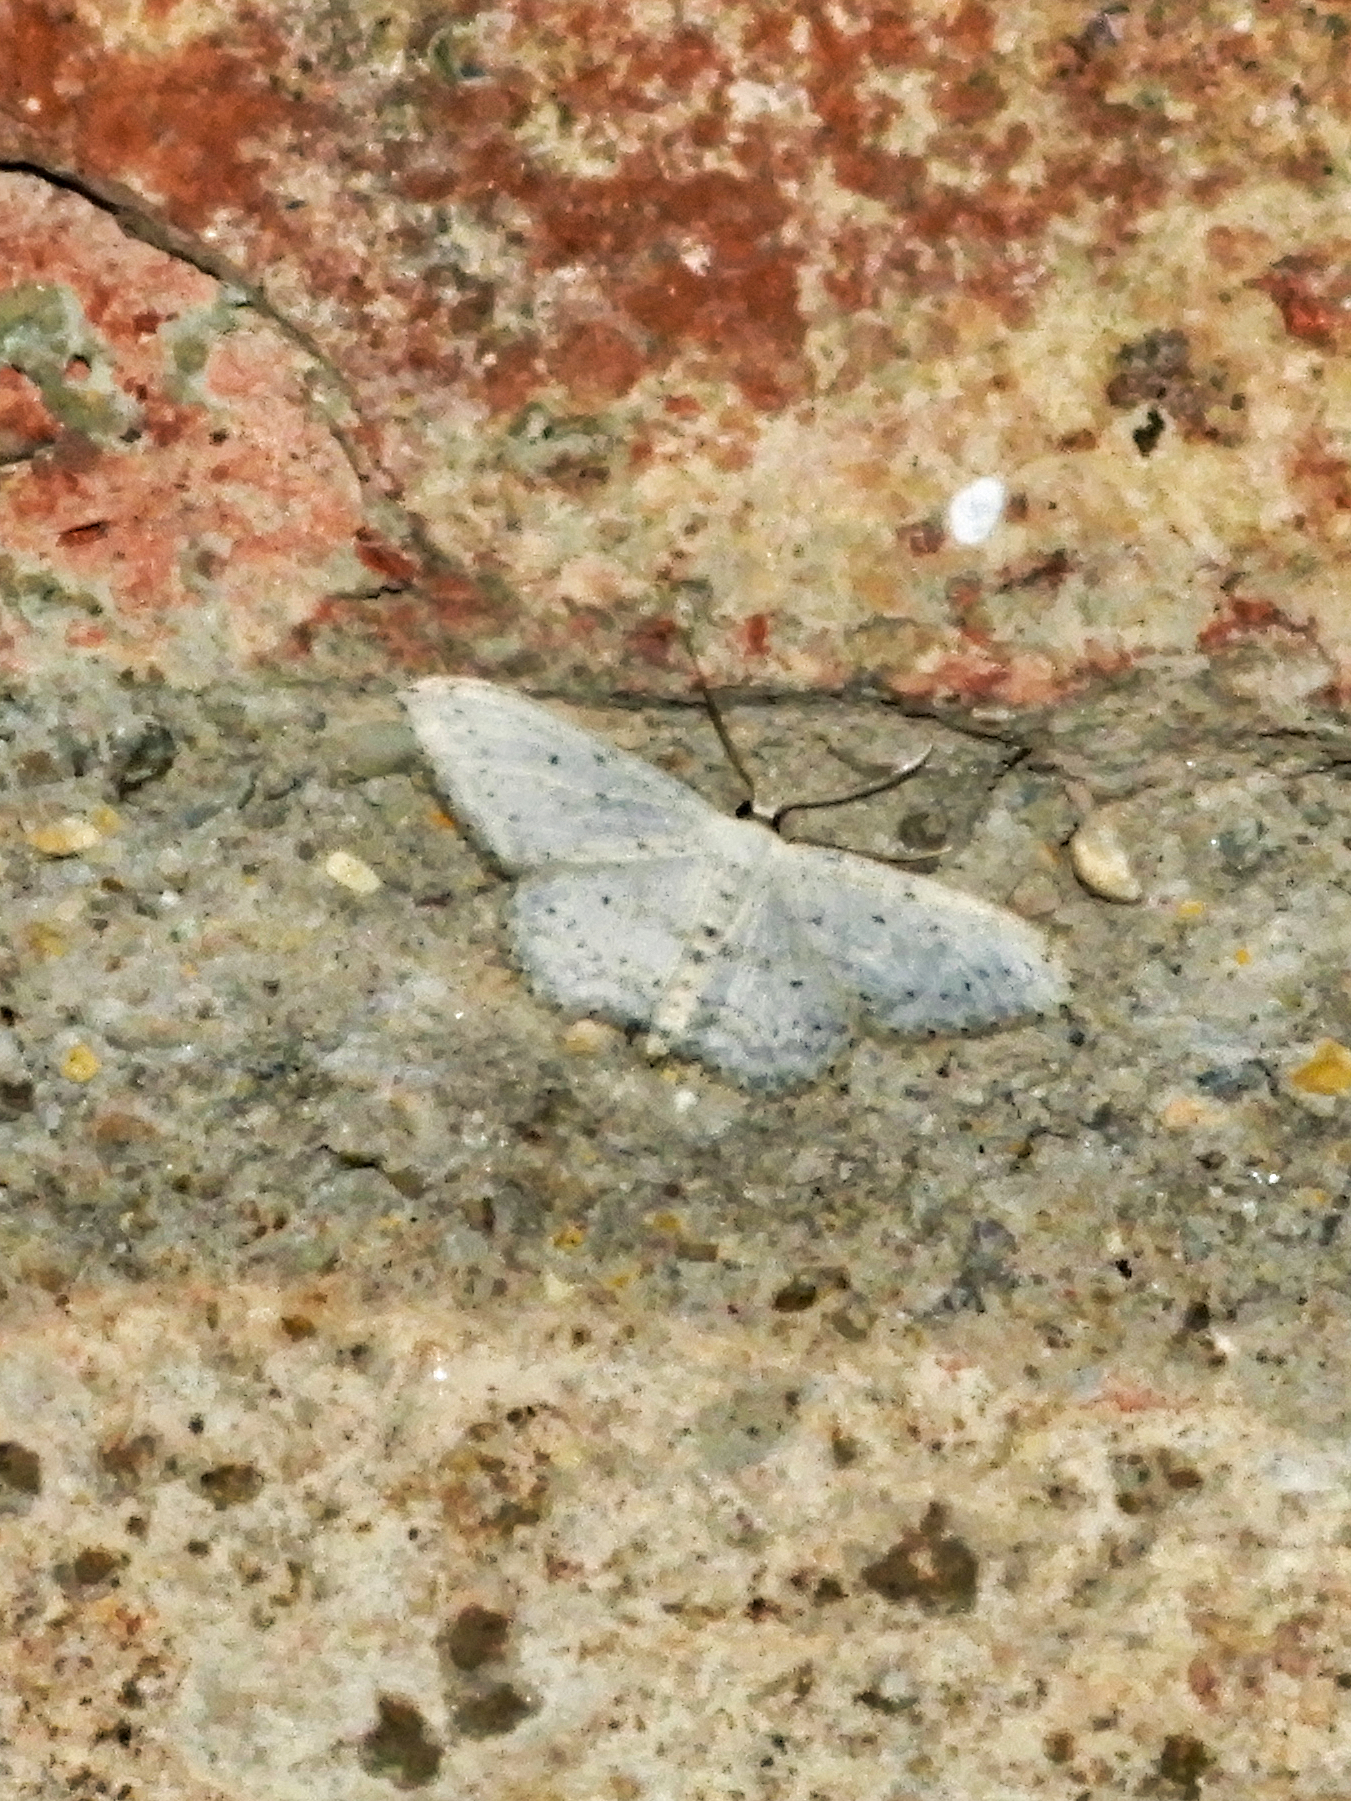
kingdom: Animalia
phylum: Arthropoda
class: Insecta
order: Lepidoptera
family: Geometridae
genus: Idaea
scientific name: Idaea seriata
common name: Small dusty wave
